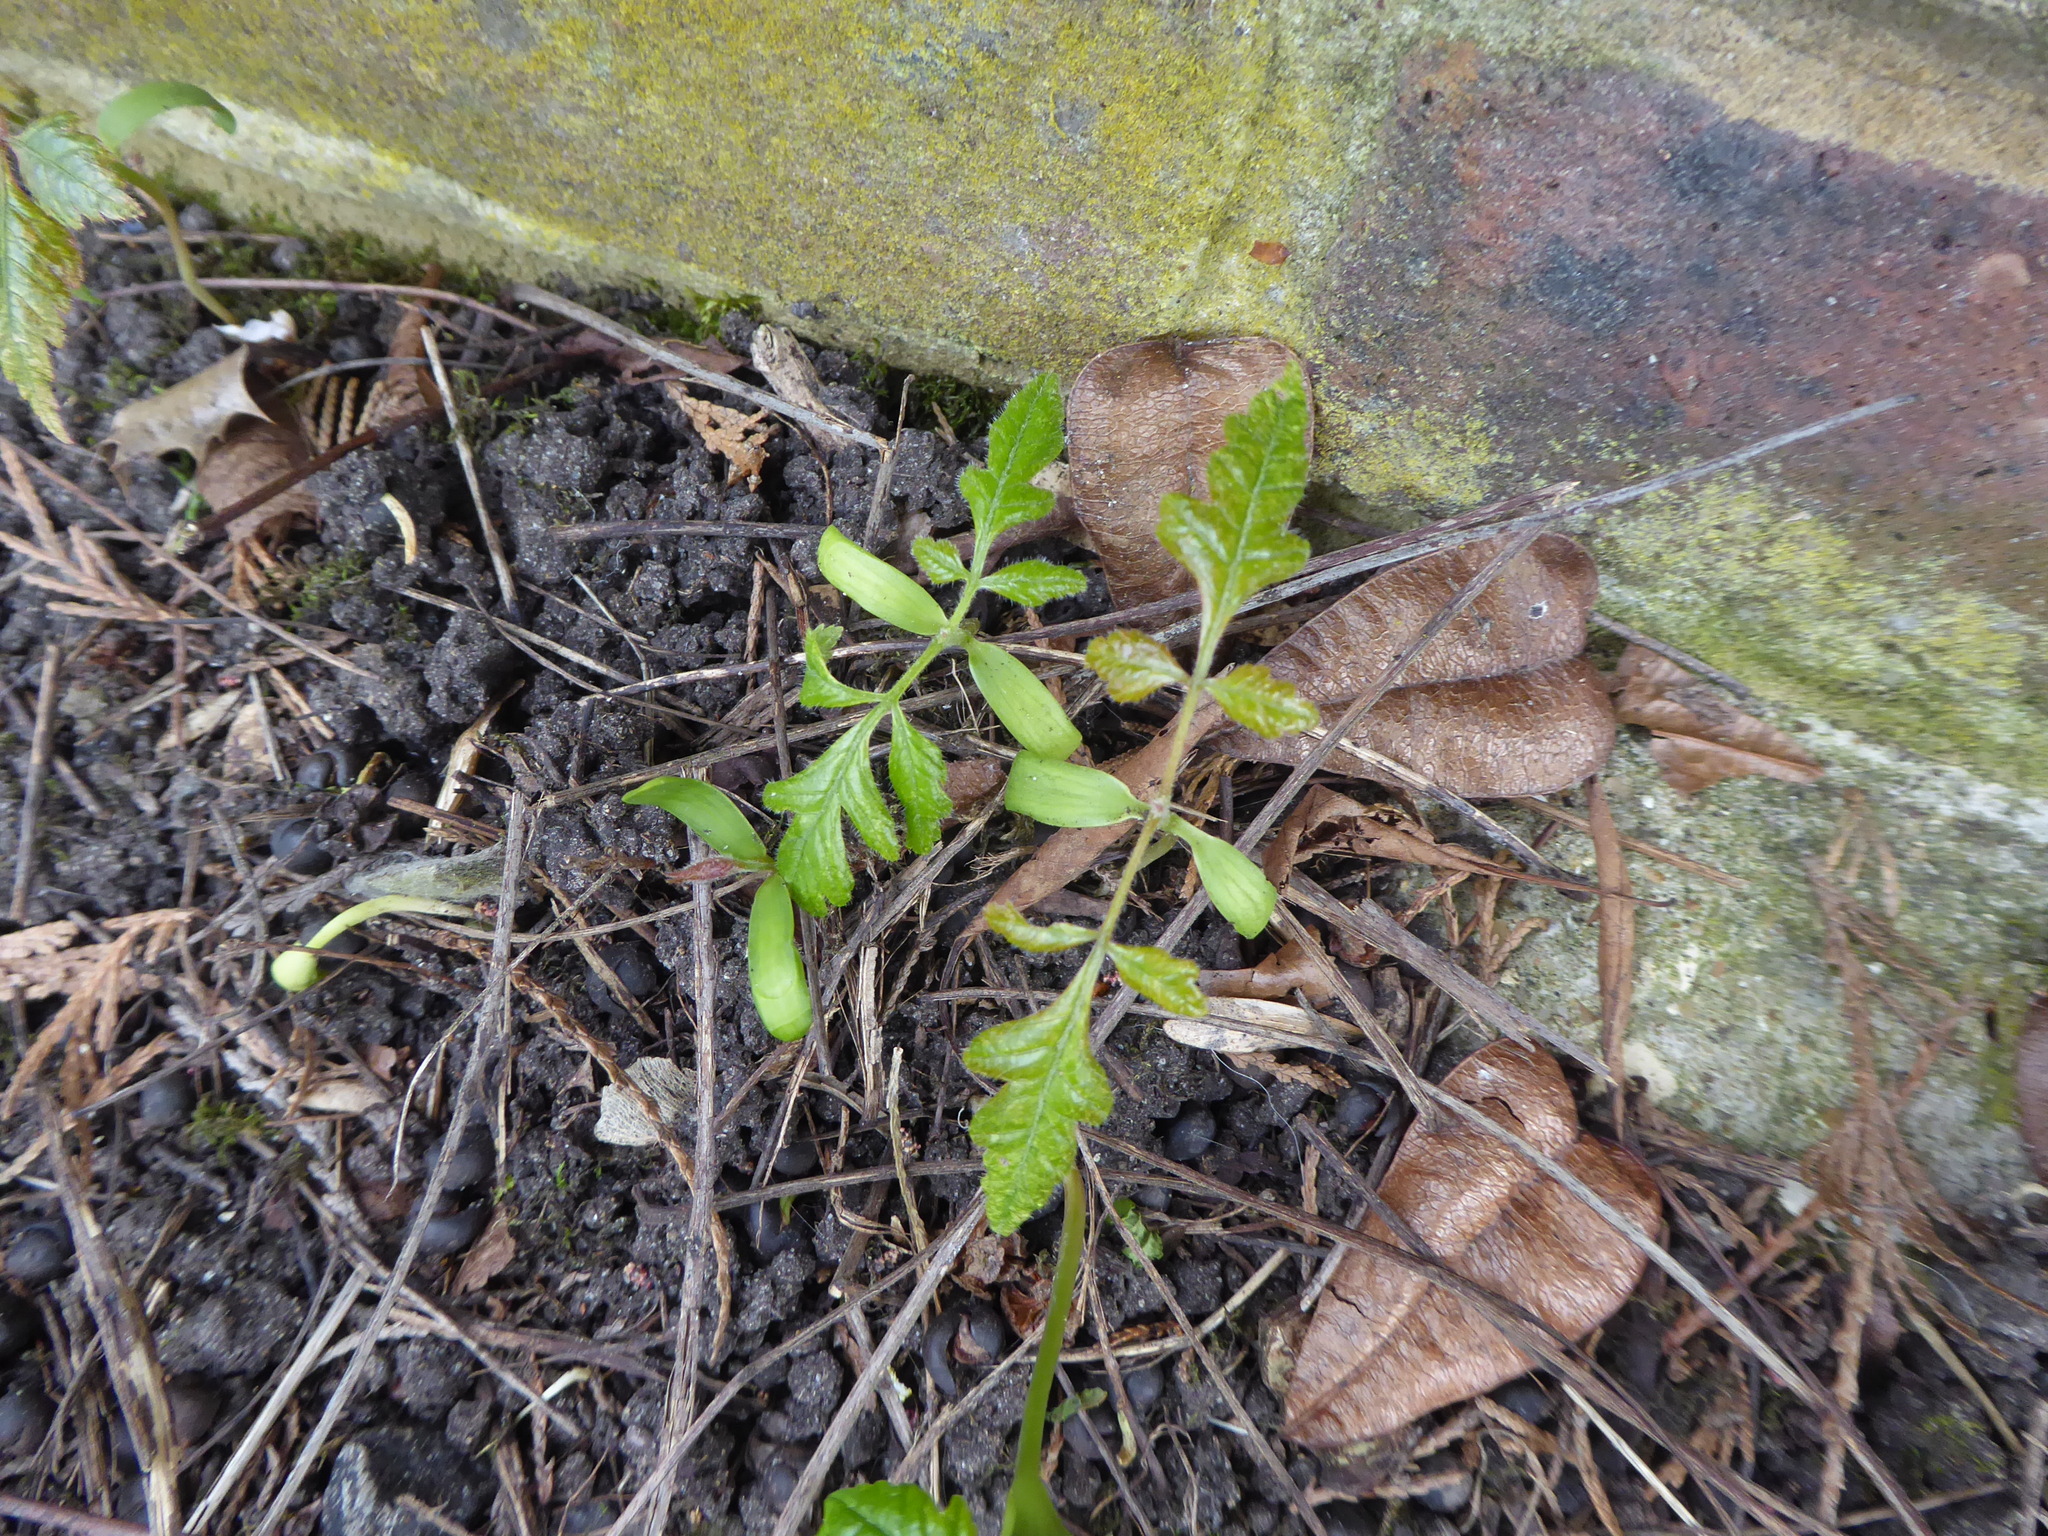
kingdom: Plantae
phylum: Tracheophyta
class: Magnoliopsida
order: Sapindales
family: Sapindaceae
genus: Koelreuteria
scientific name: Koelreuteria paniculata
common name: Pride-of-india
